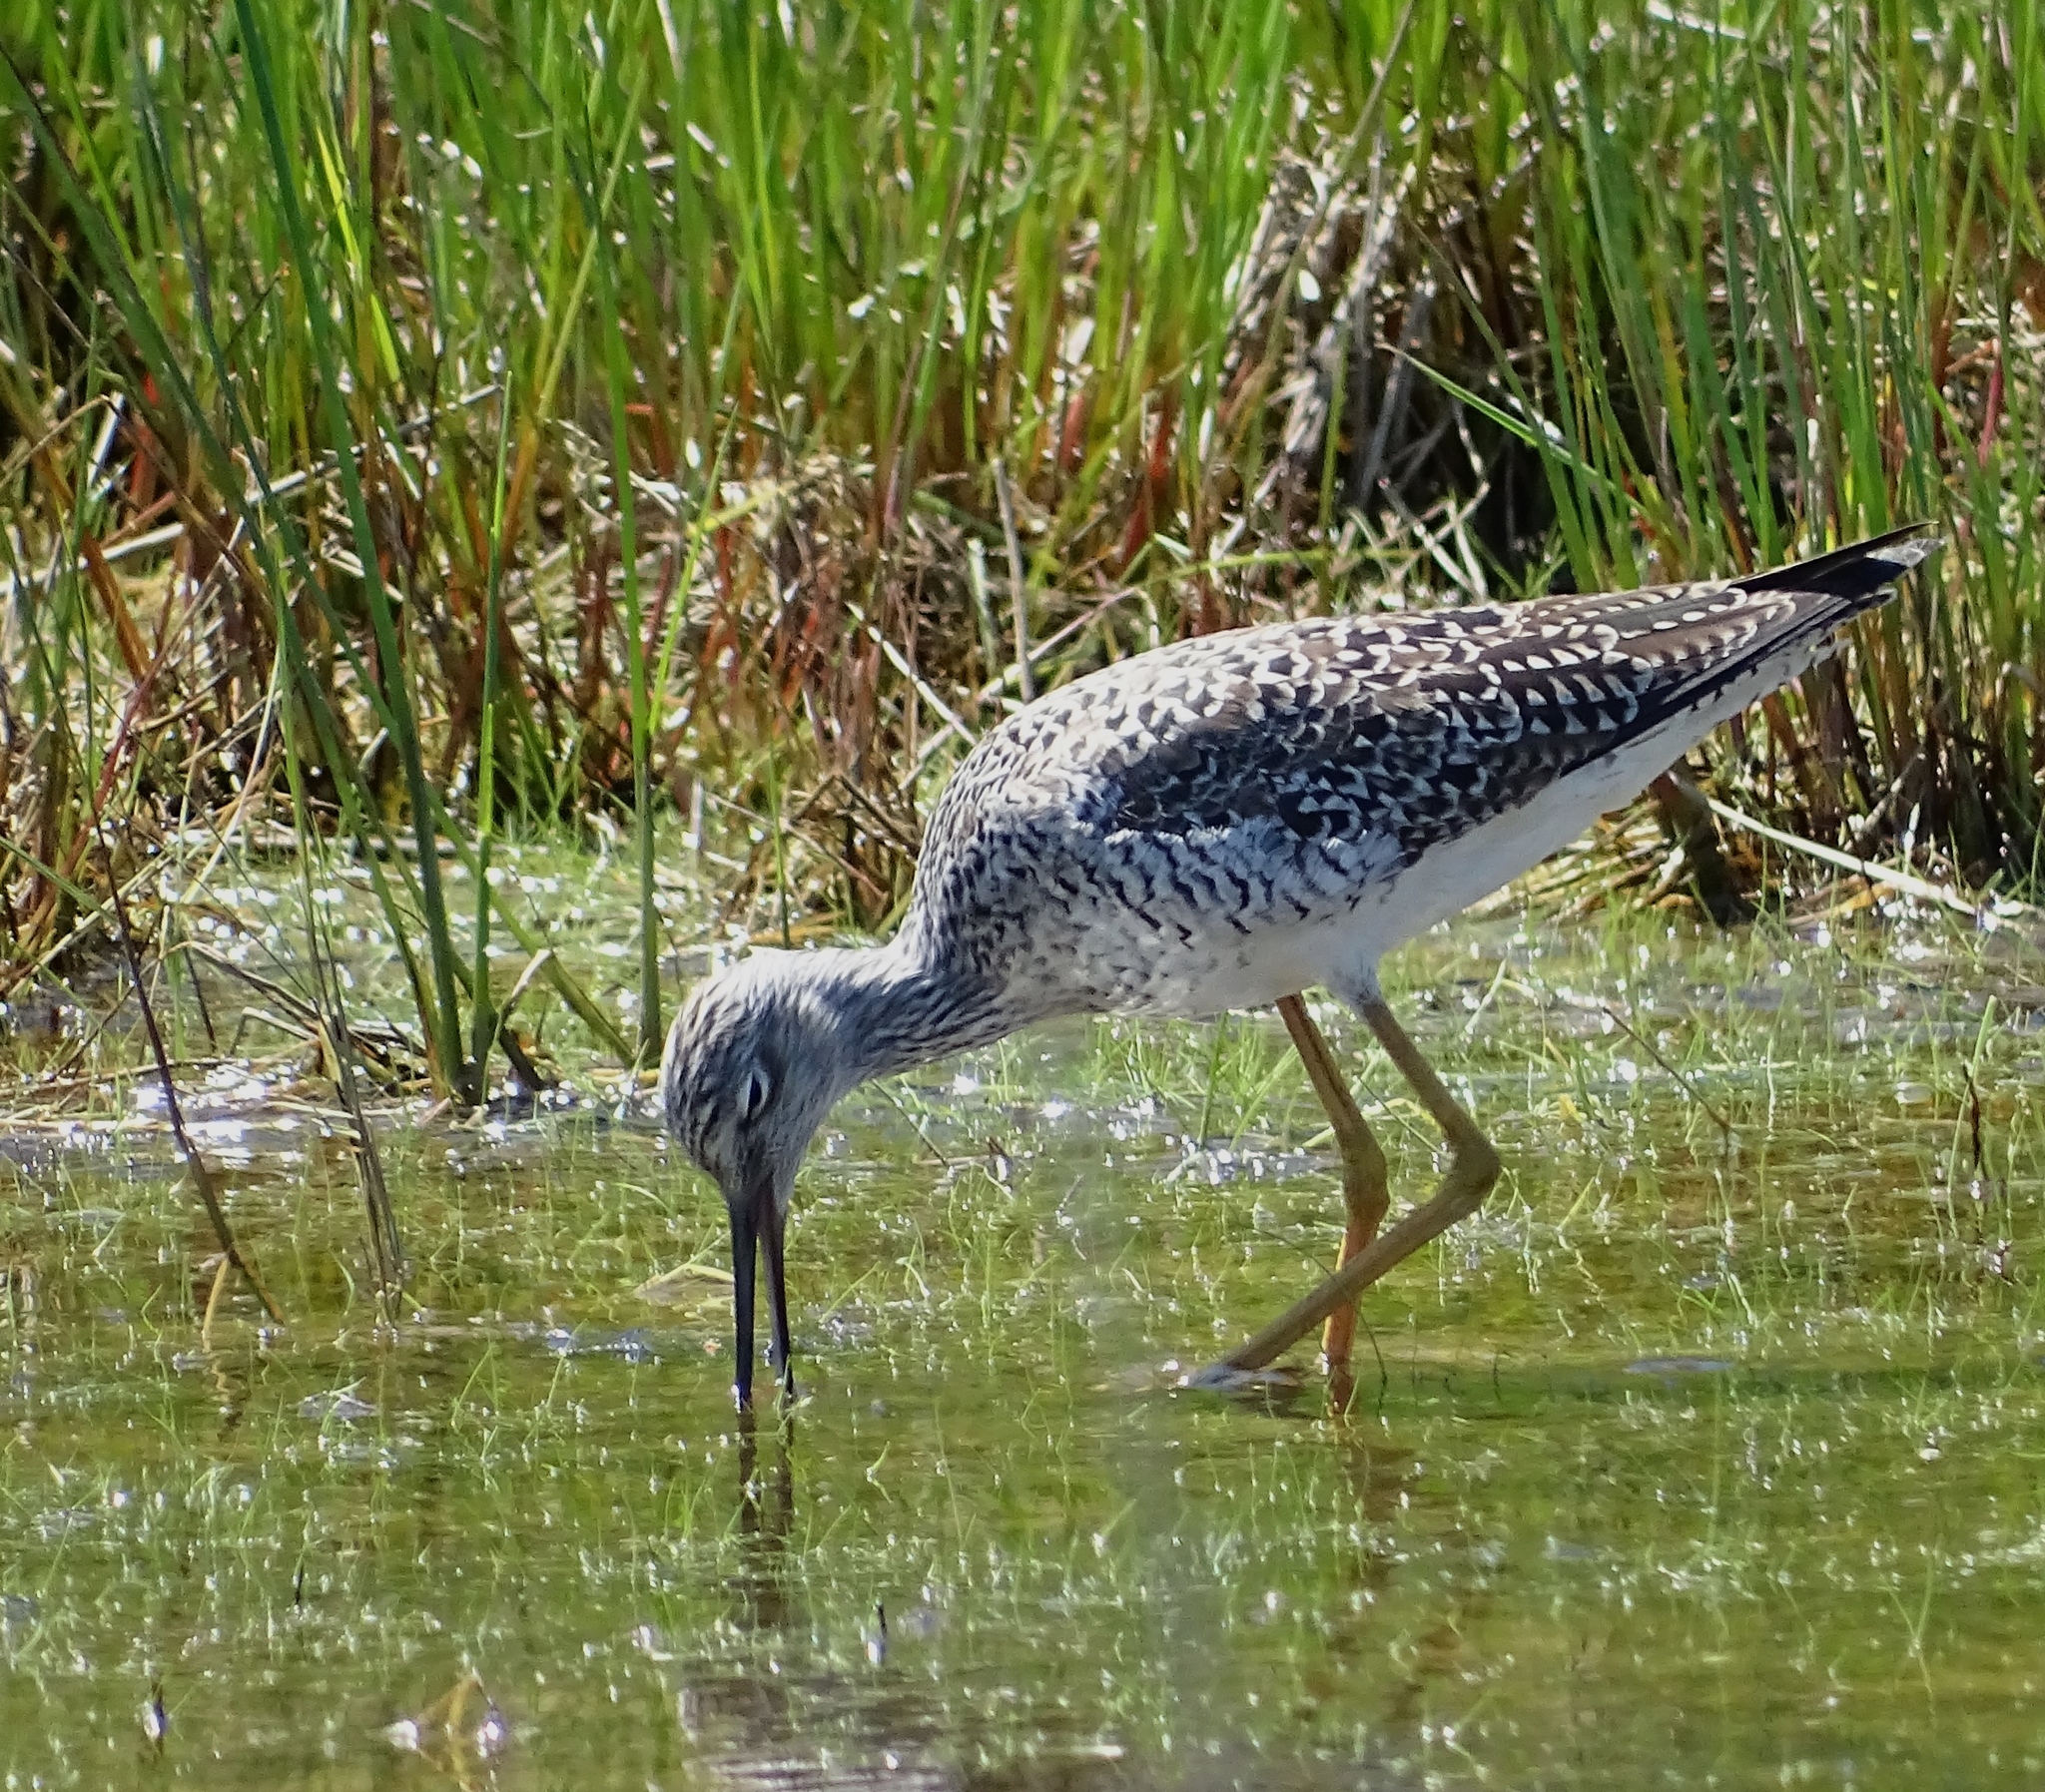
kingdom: Animalia
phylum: Chordata
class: Aves
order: Charadriiformes
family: Scolopacidae
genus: Tringa
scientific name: Tringa melanoleuca
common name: Greater yellowlegs
